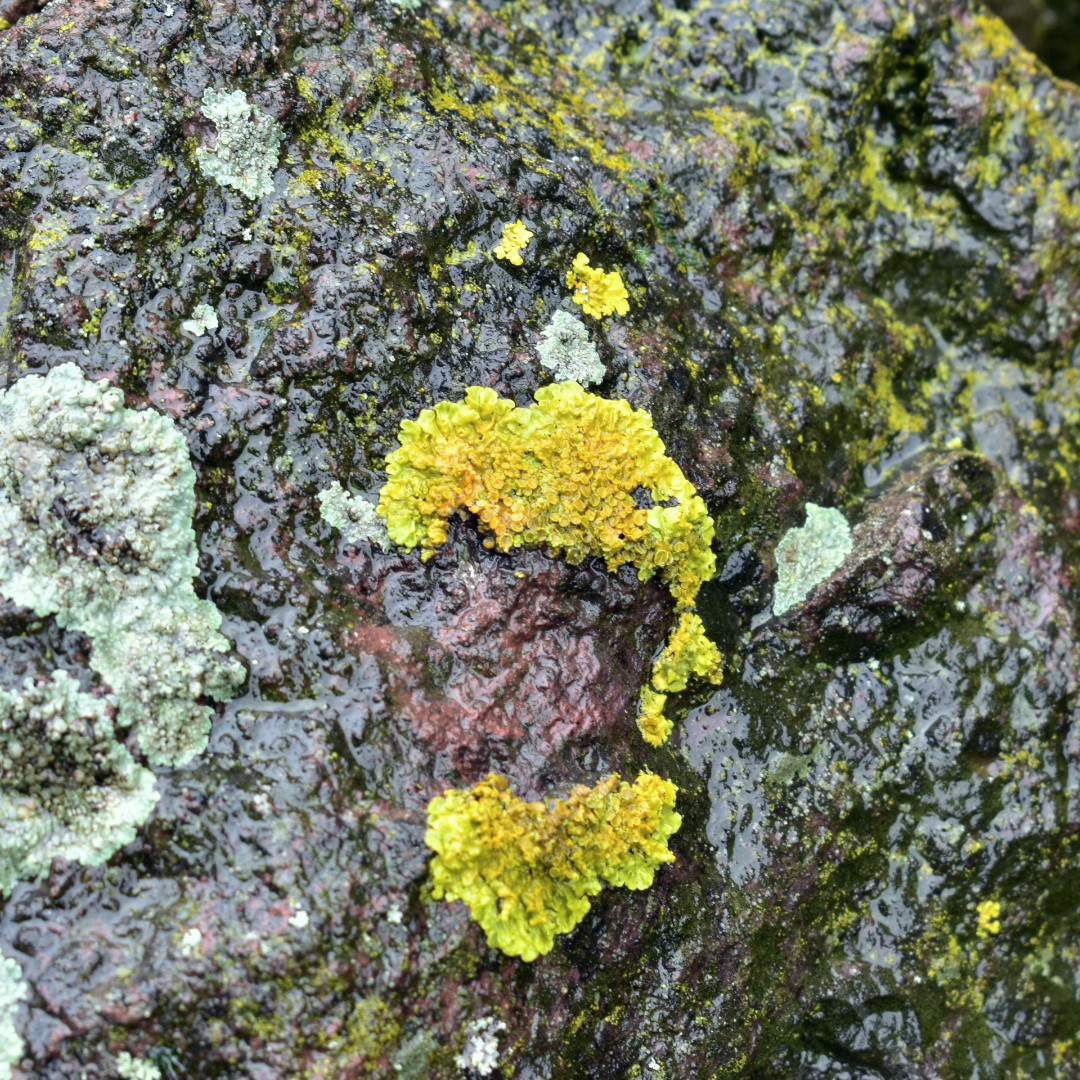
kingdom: Fungi
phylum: Ascomycota
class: Lecanoromycetes
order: Teloschistales
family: Teloschistaceae
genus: Xanthoria
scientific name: Xanthoria parietina
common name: Common orange lichen
